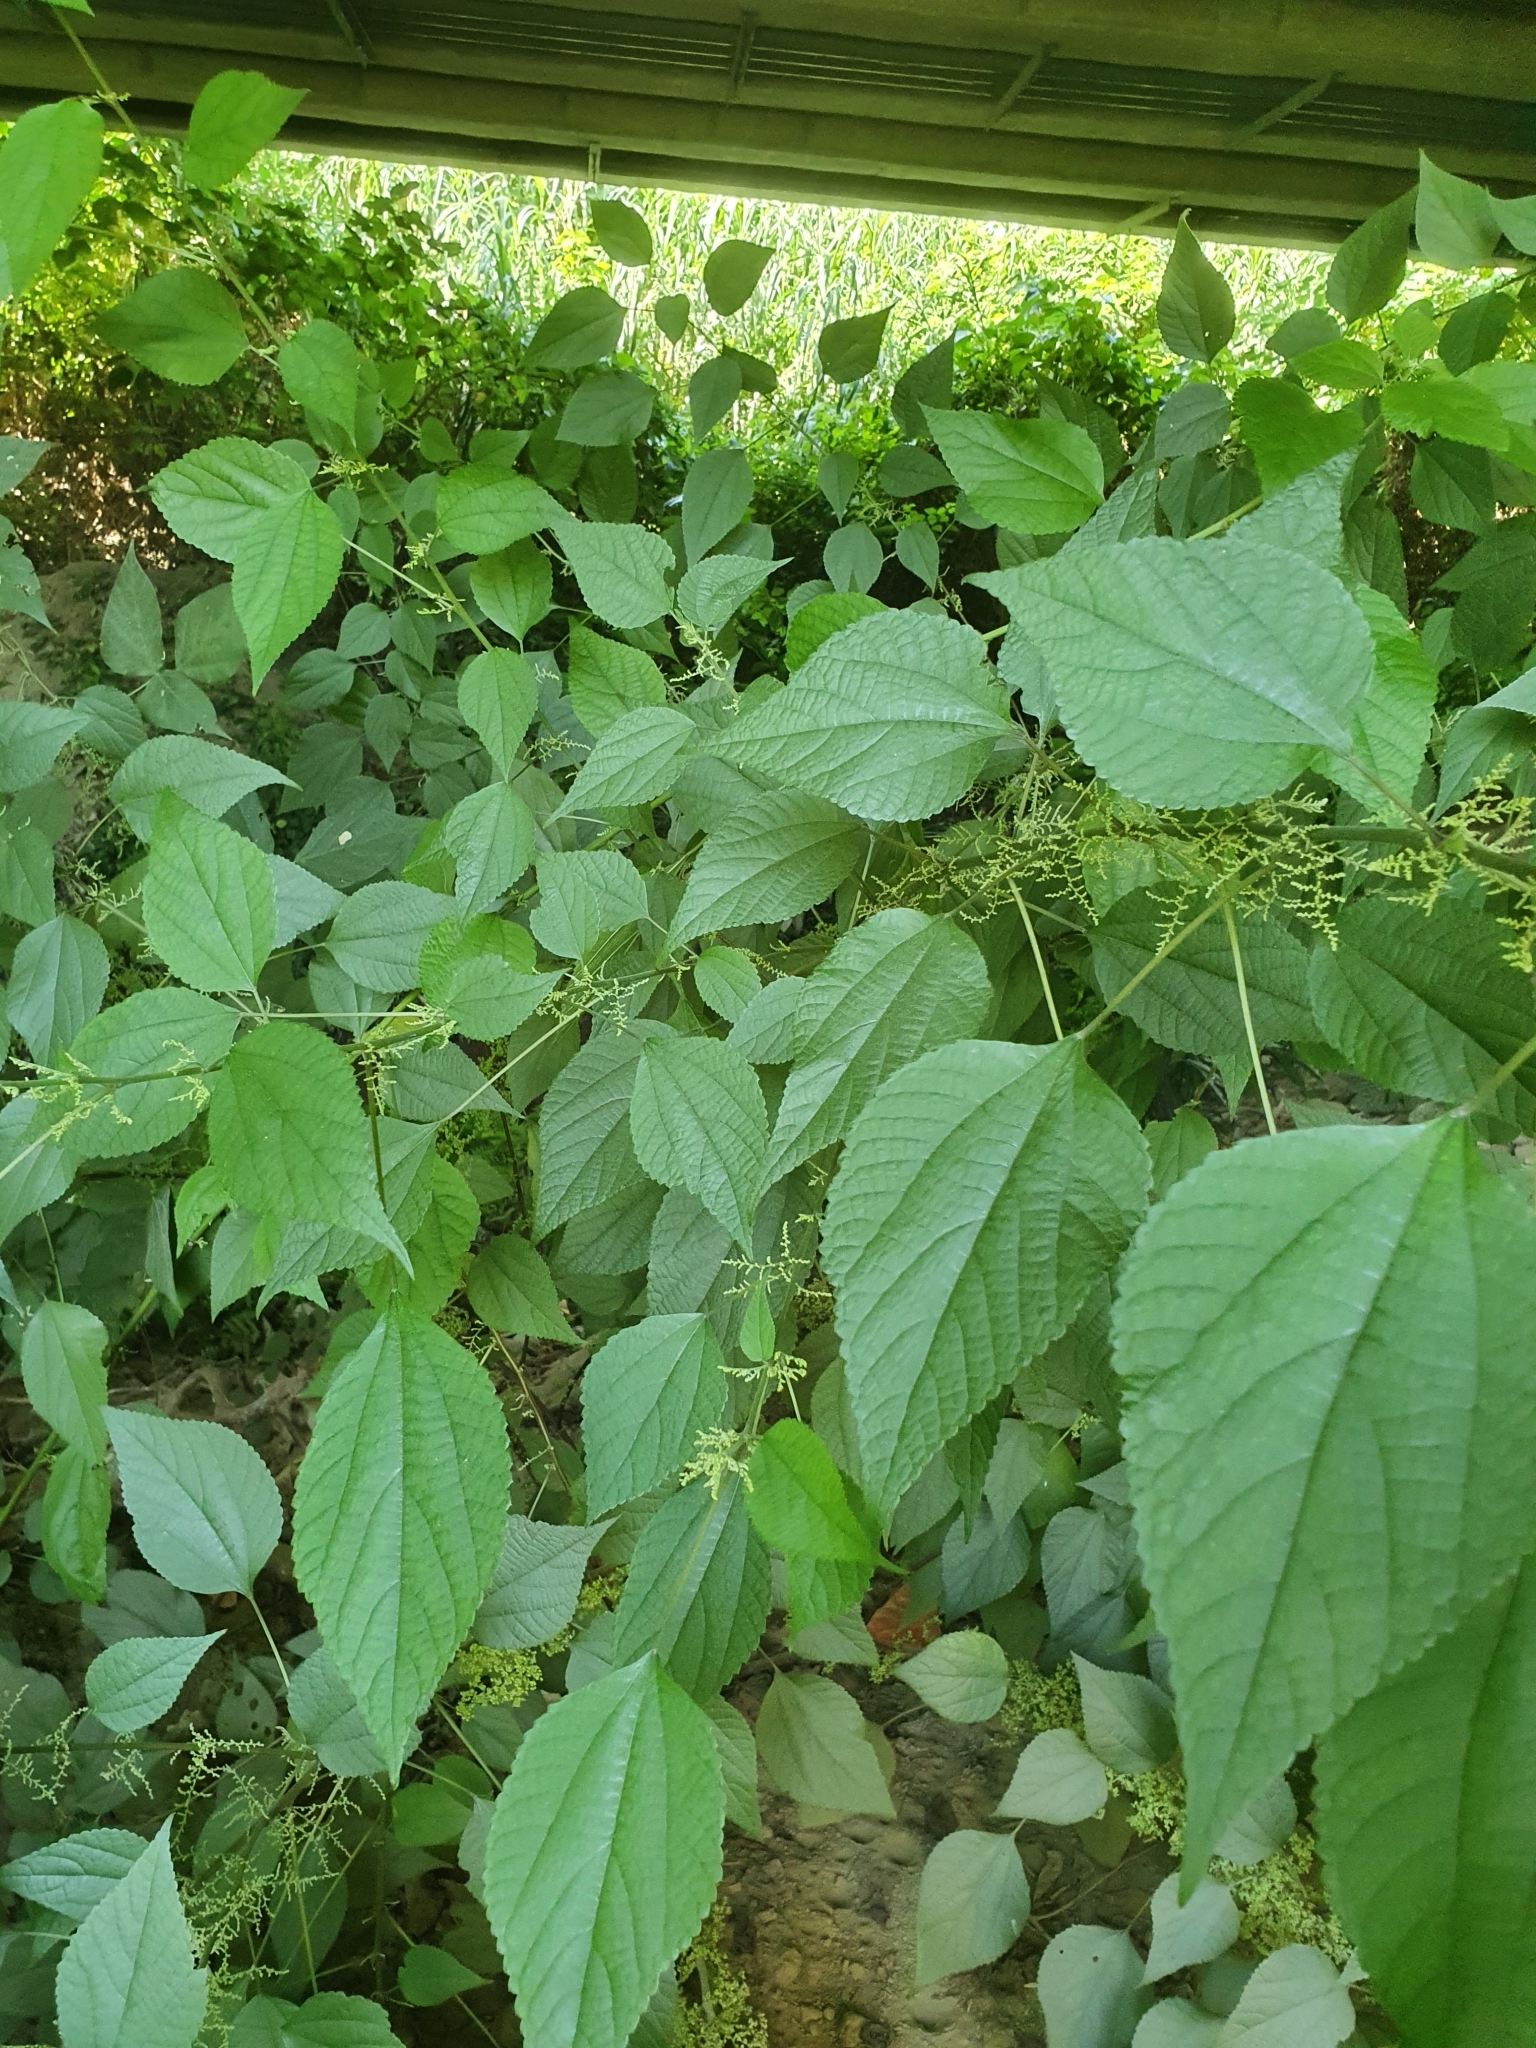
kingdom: Plantae
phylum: Tracheophyta
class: Magnoliopsida
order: Rosales
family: Urticaceae
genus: Boehmeria
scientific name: Boehmeria nivea
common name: Ramie chinese grass
